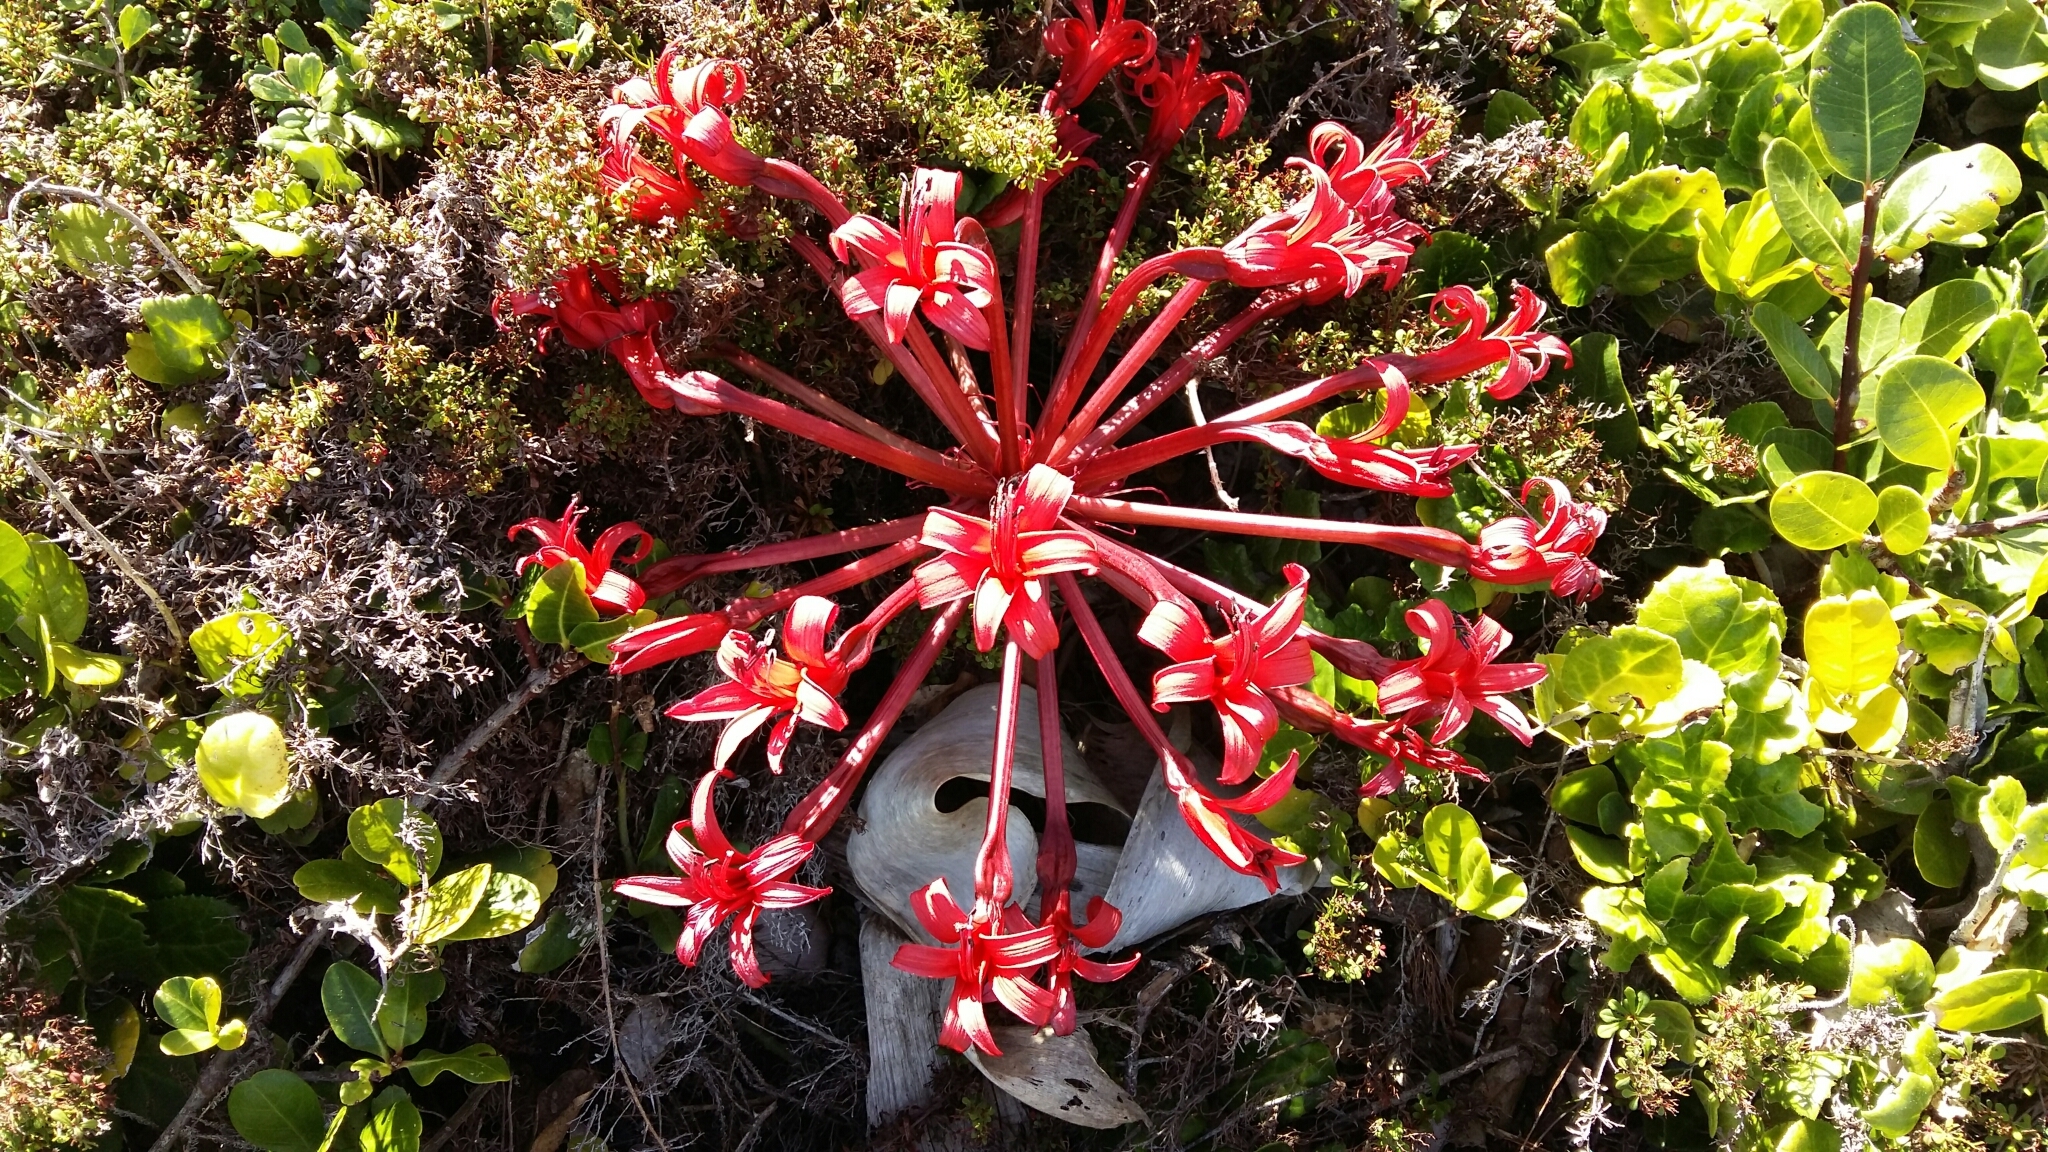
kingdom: Plantae
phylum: Tracheophyta
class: Liliopsida
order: Asparagales
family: Amaryllidaceae
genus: Brunsvigia
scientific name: Brunsvigia orientalis
